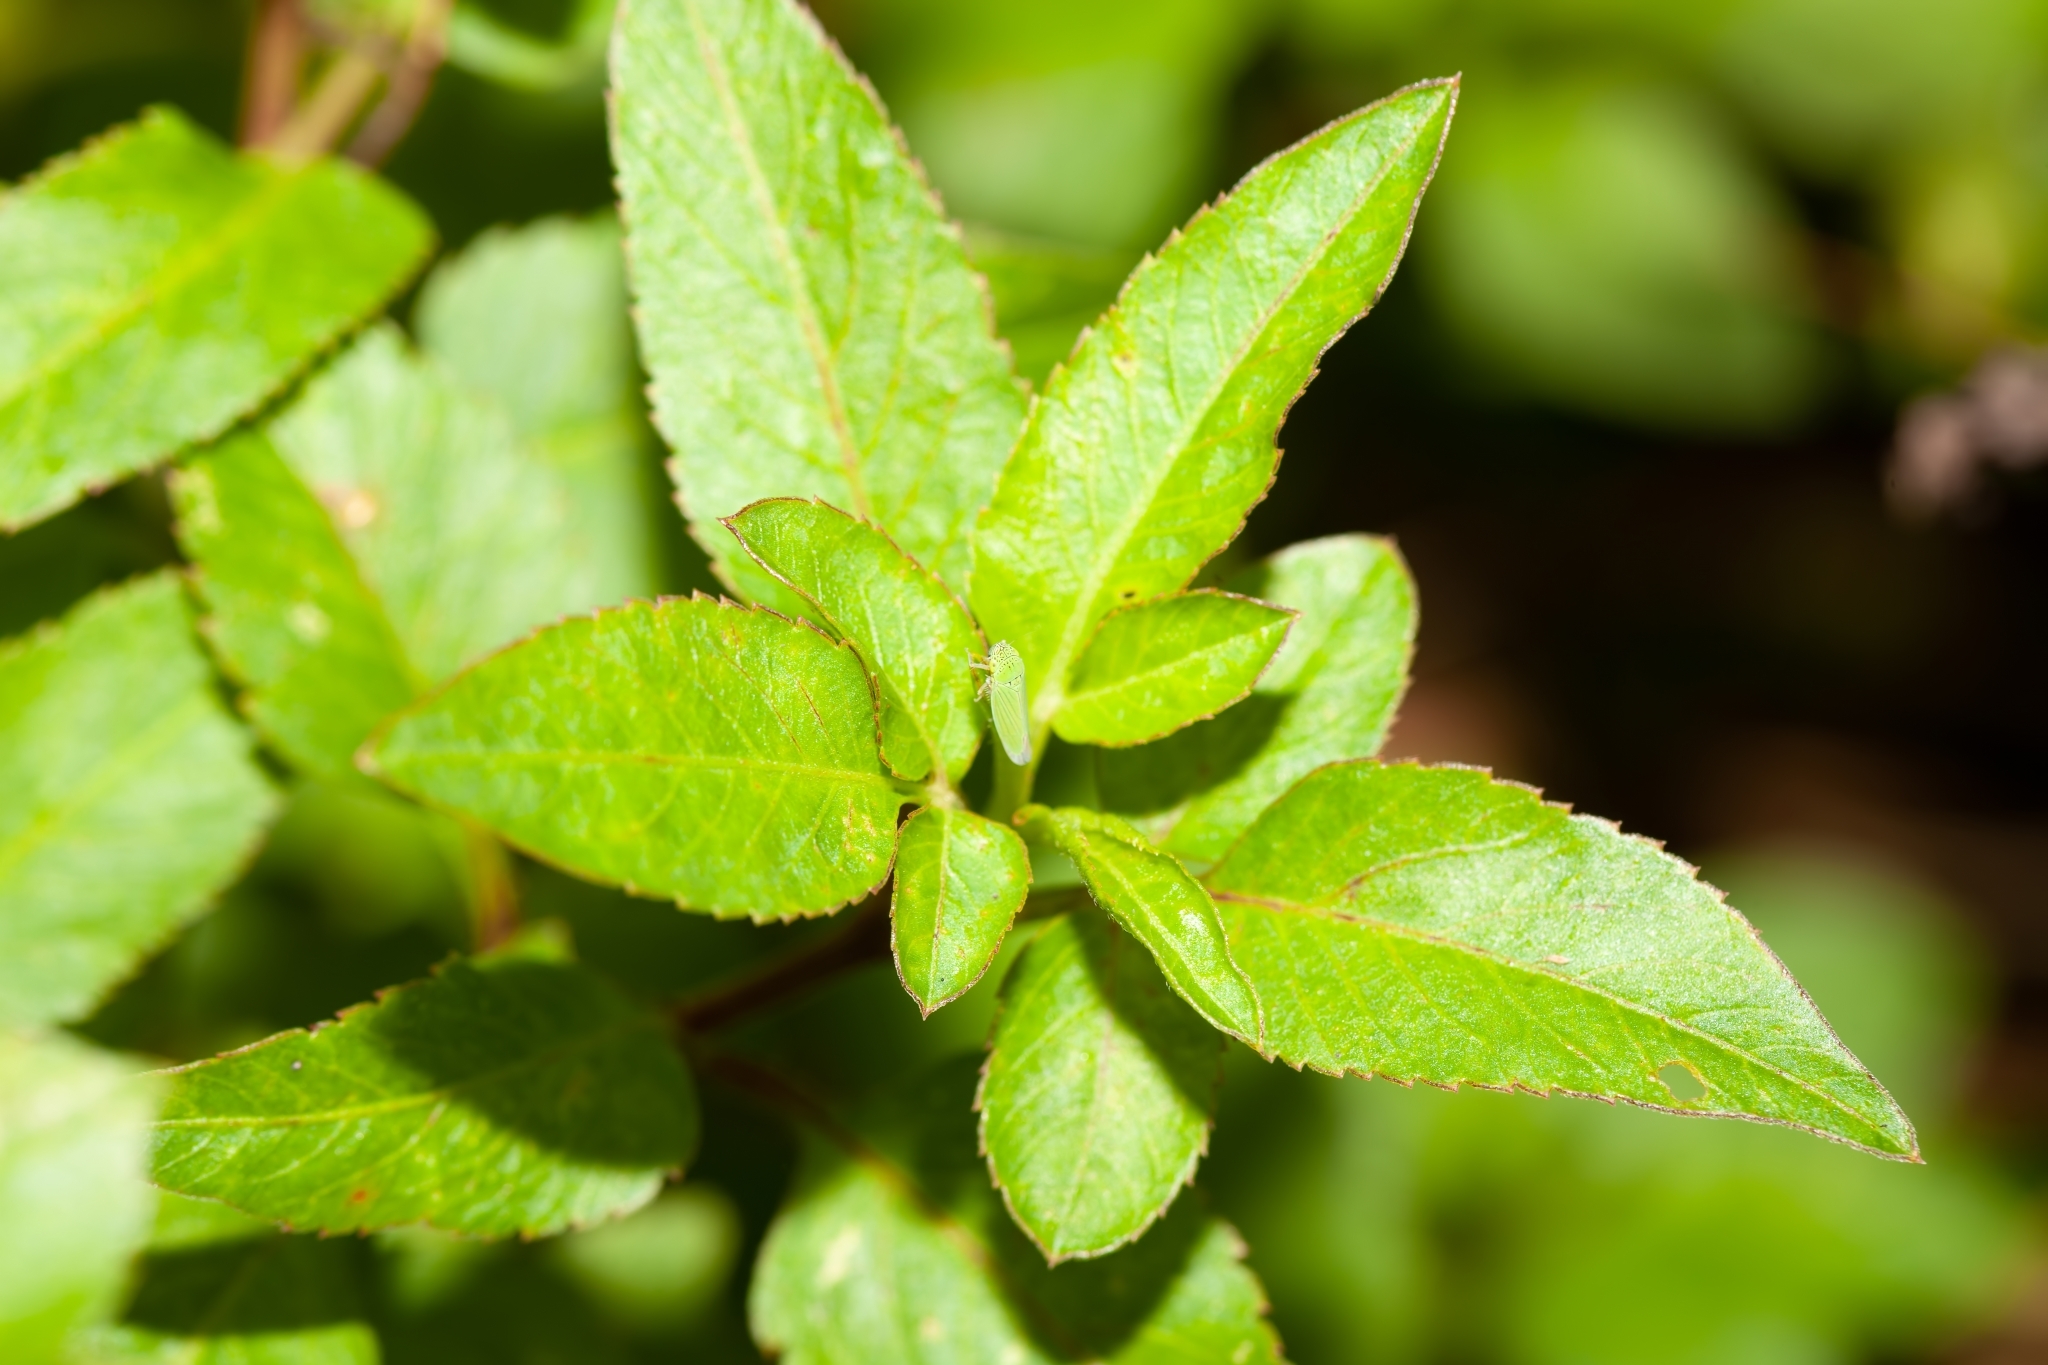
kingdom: Animalia
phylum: Arthropoda
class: Insecta
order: Hemiptera
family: Cicadellidae
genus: Hortensia
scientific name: Hortensia similis
